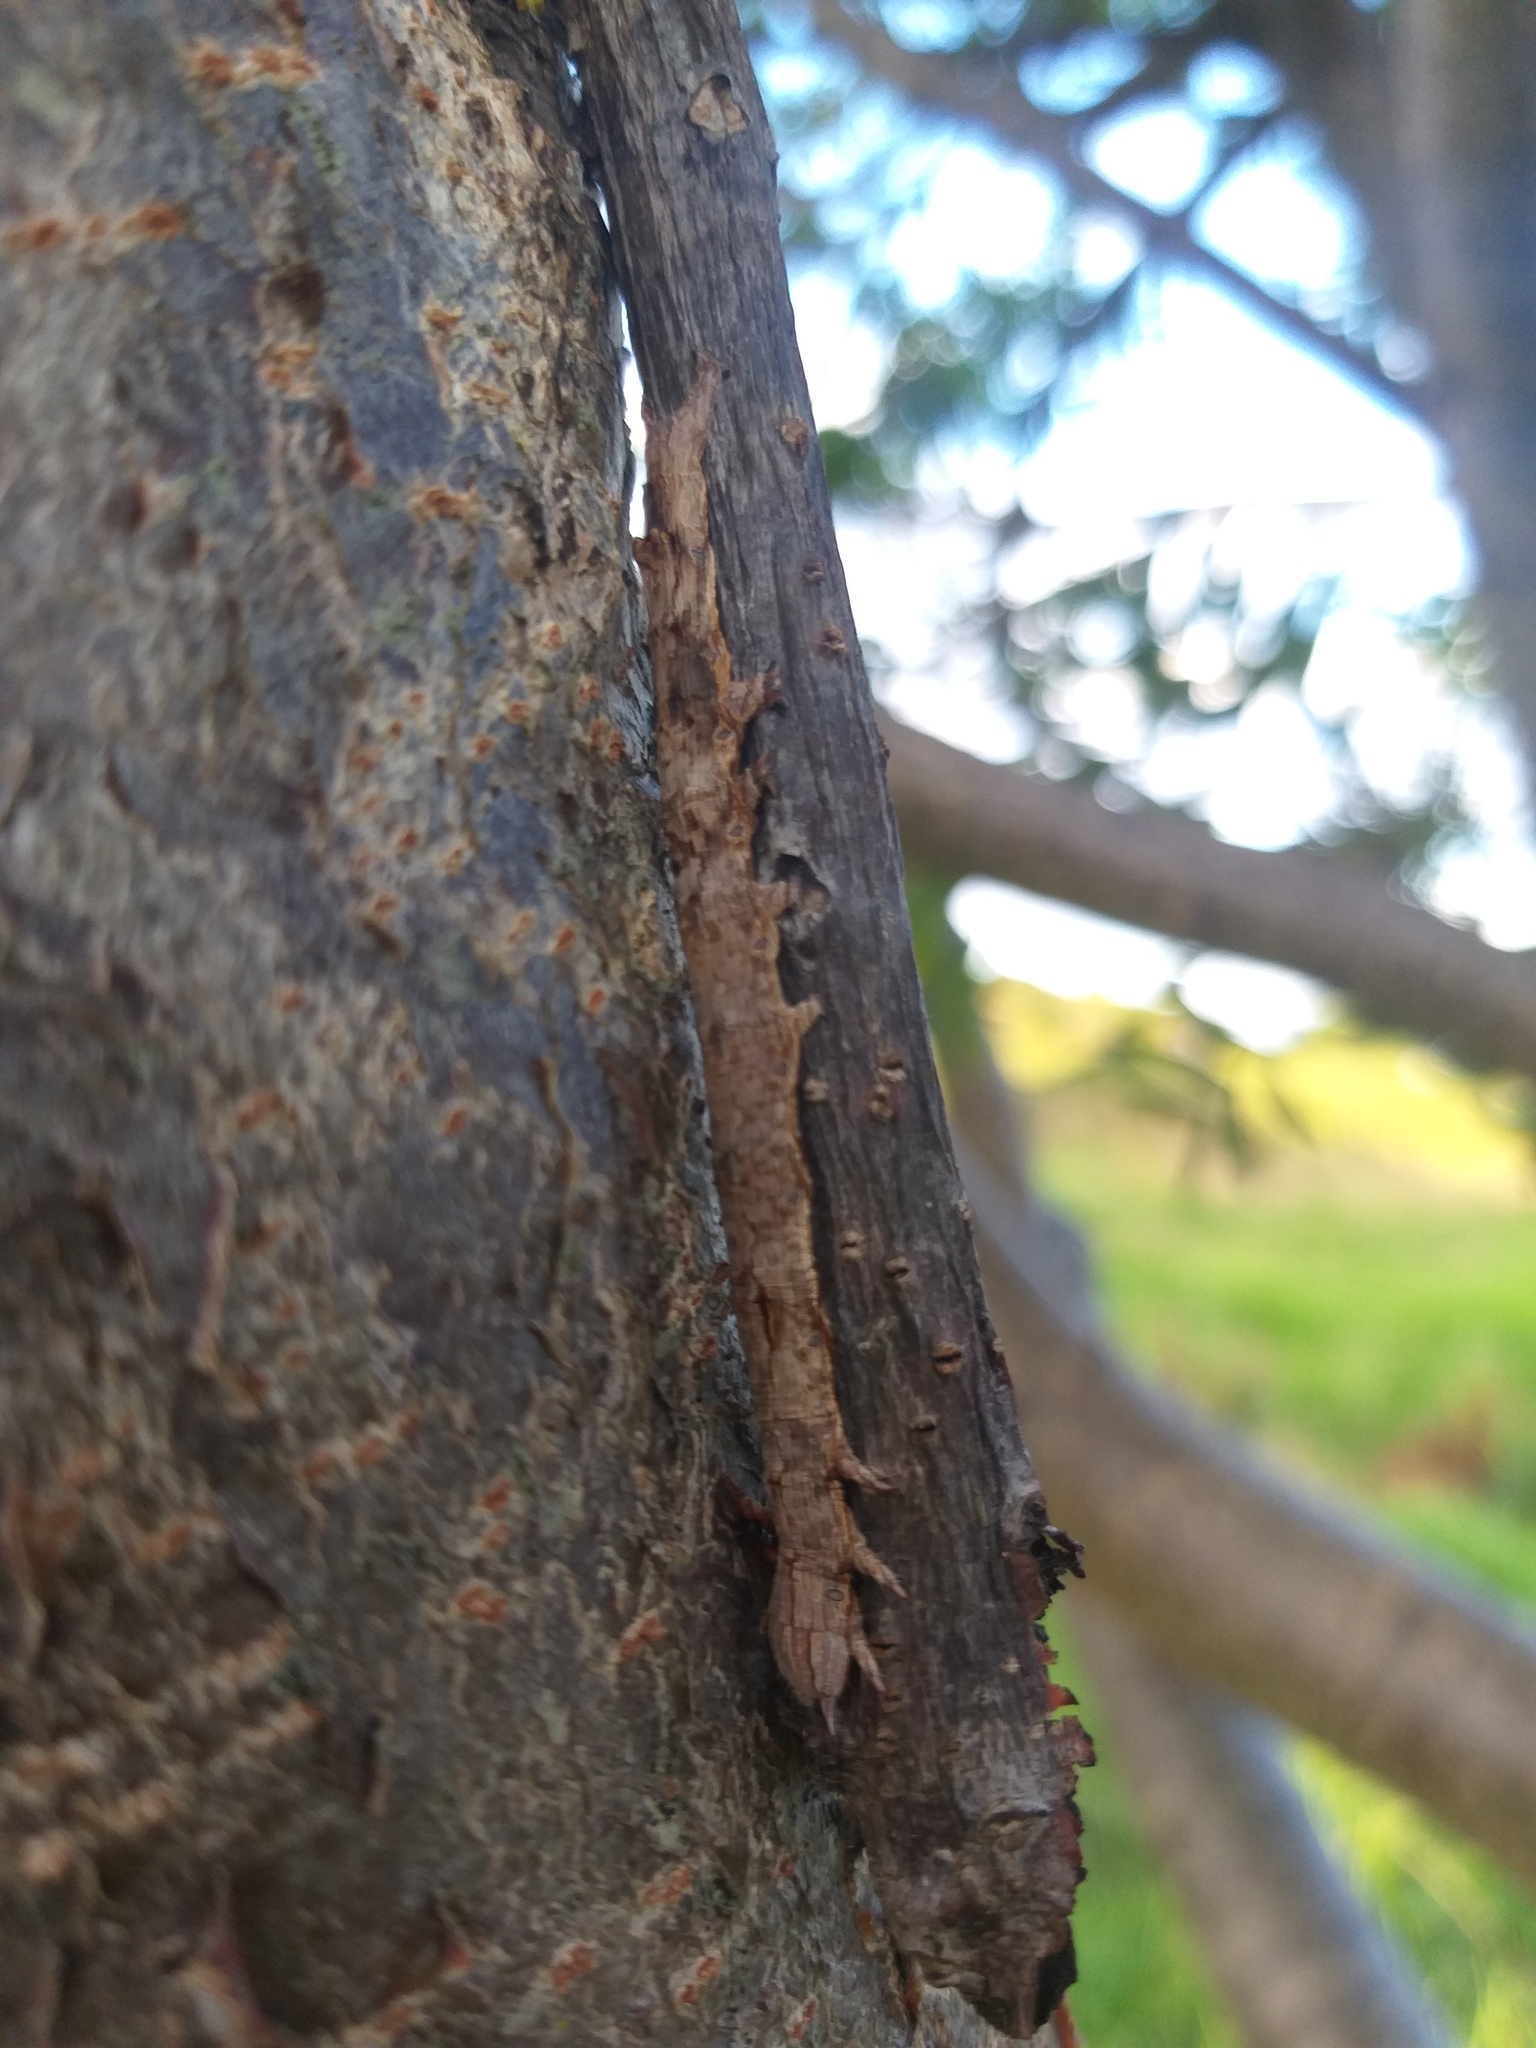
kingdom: Animalia
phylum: Arthropoda
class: Insecta
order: Lepidoptera
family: Erebidae
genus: Achaea
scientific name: Achaea echo
